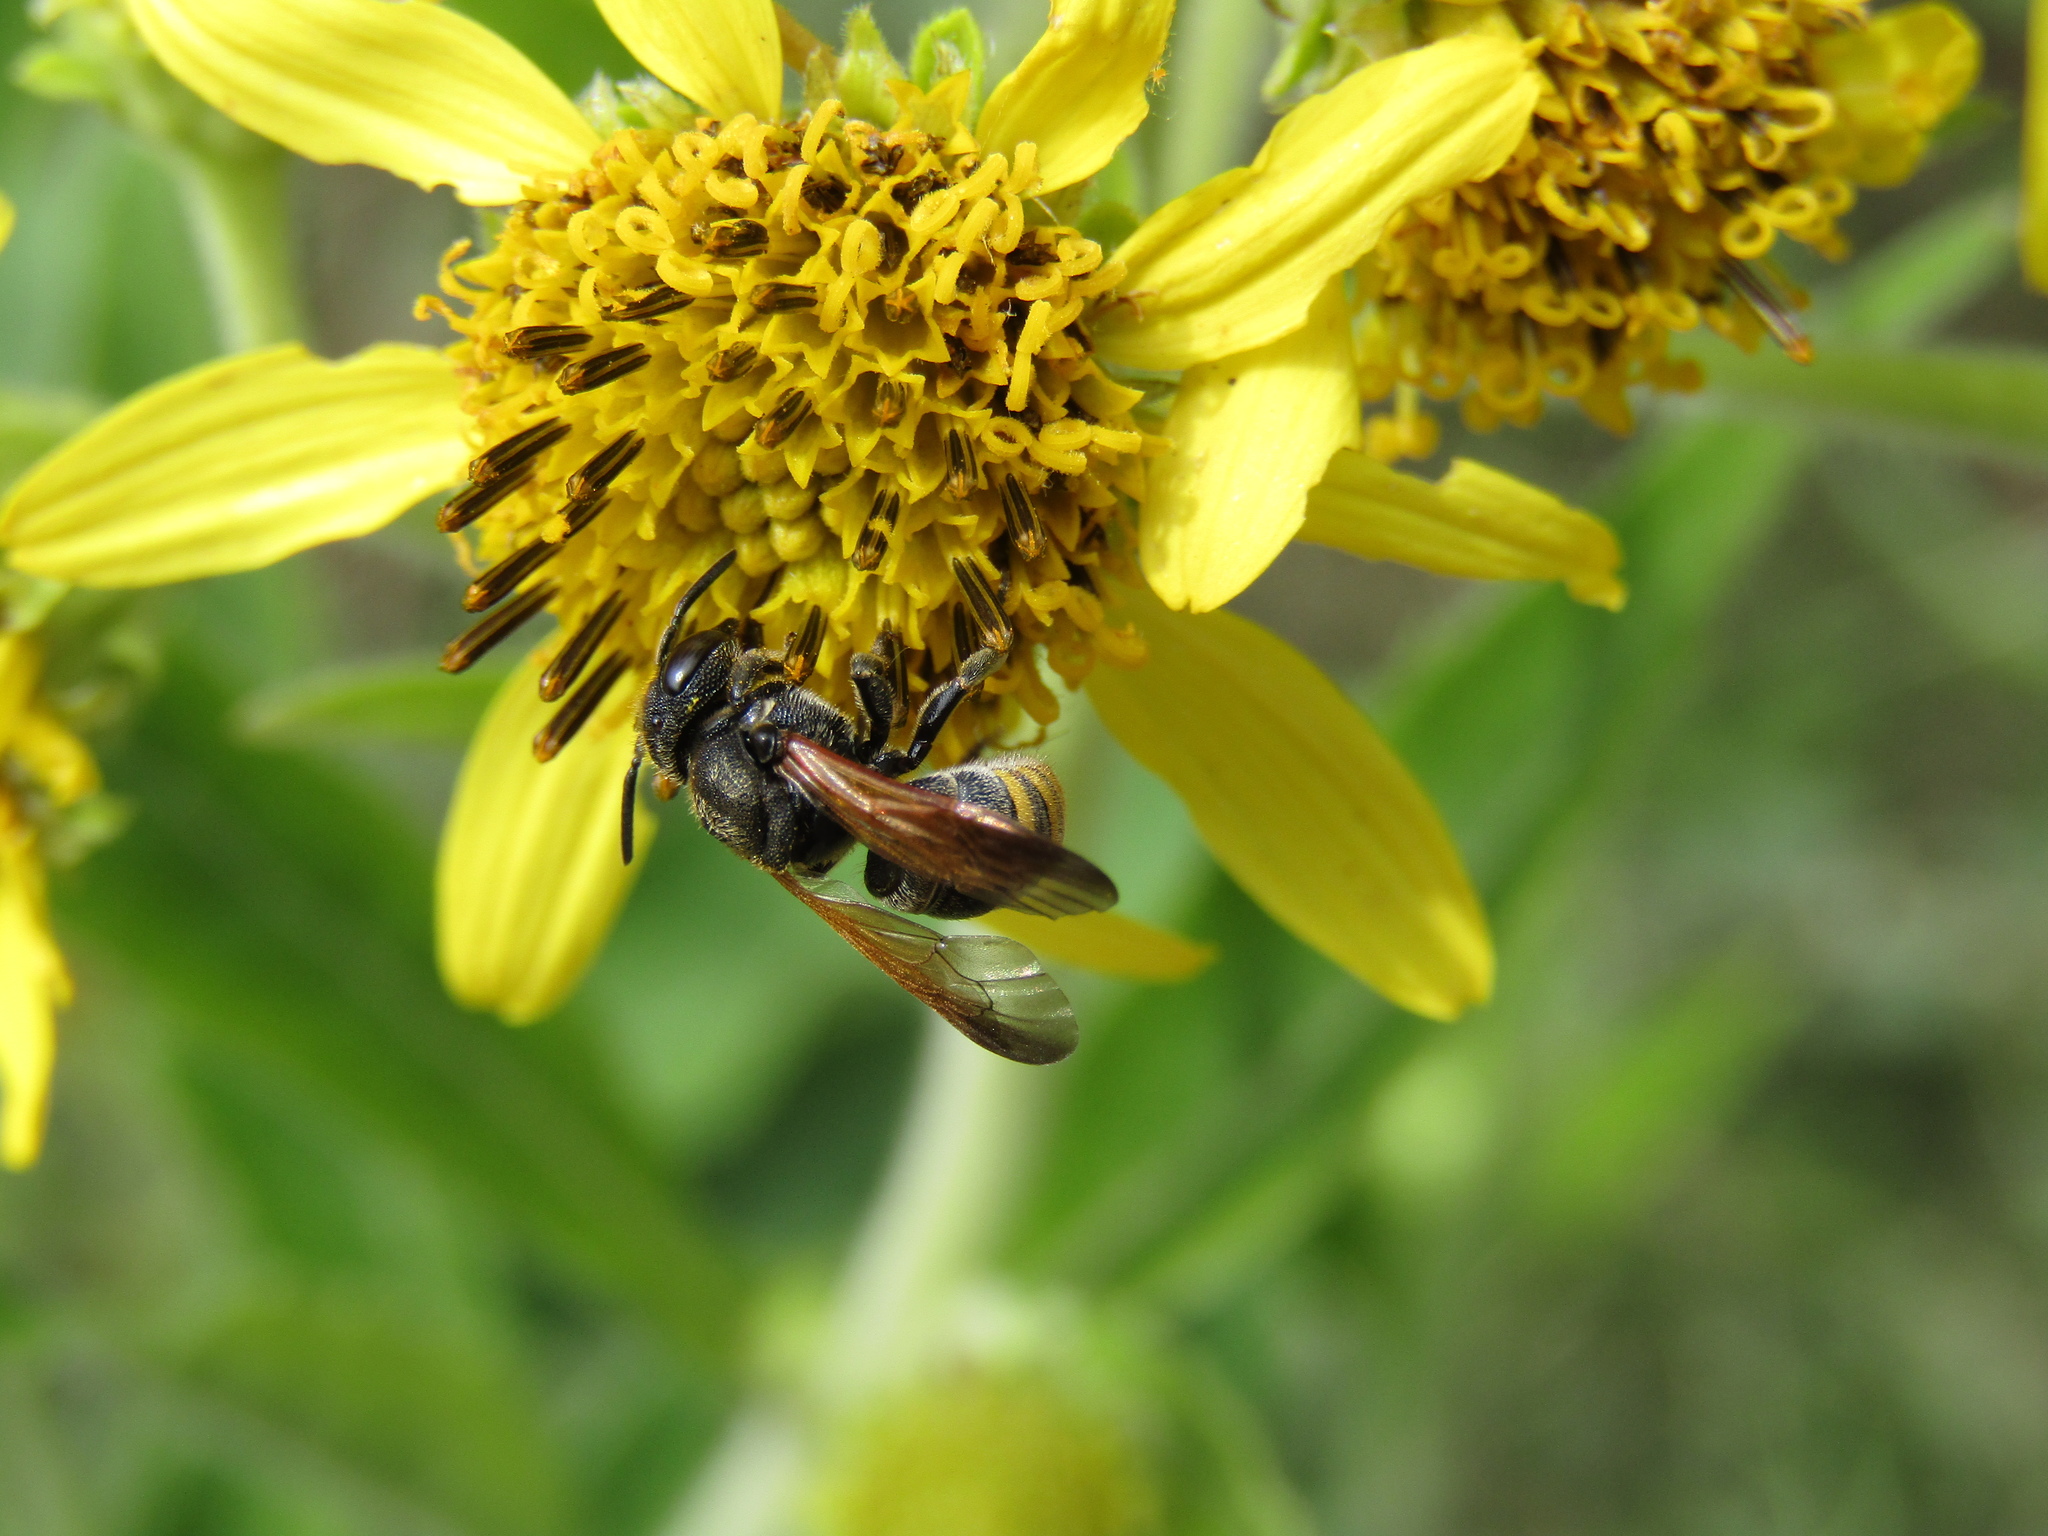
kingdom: Animalia
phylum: Arthropoda
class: Insecta
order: Hymenoptera
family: Vespidae
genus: Brachygastra
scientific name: Brachygastra lecheguana
